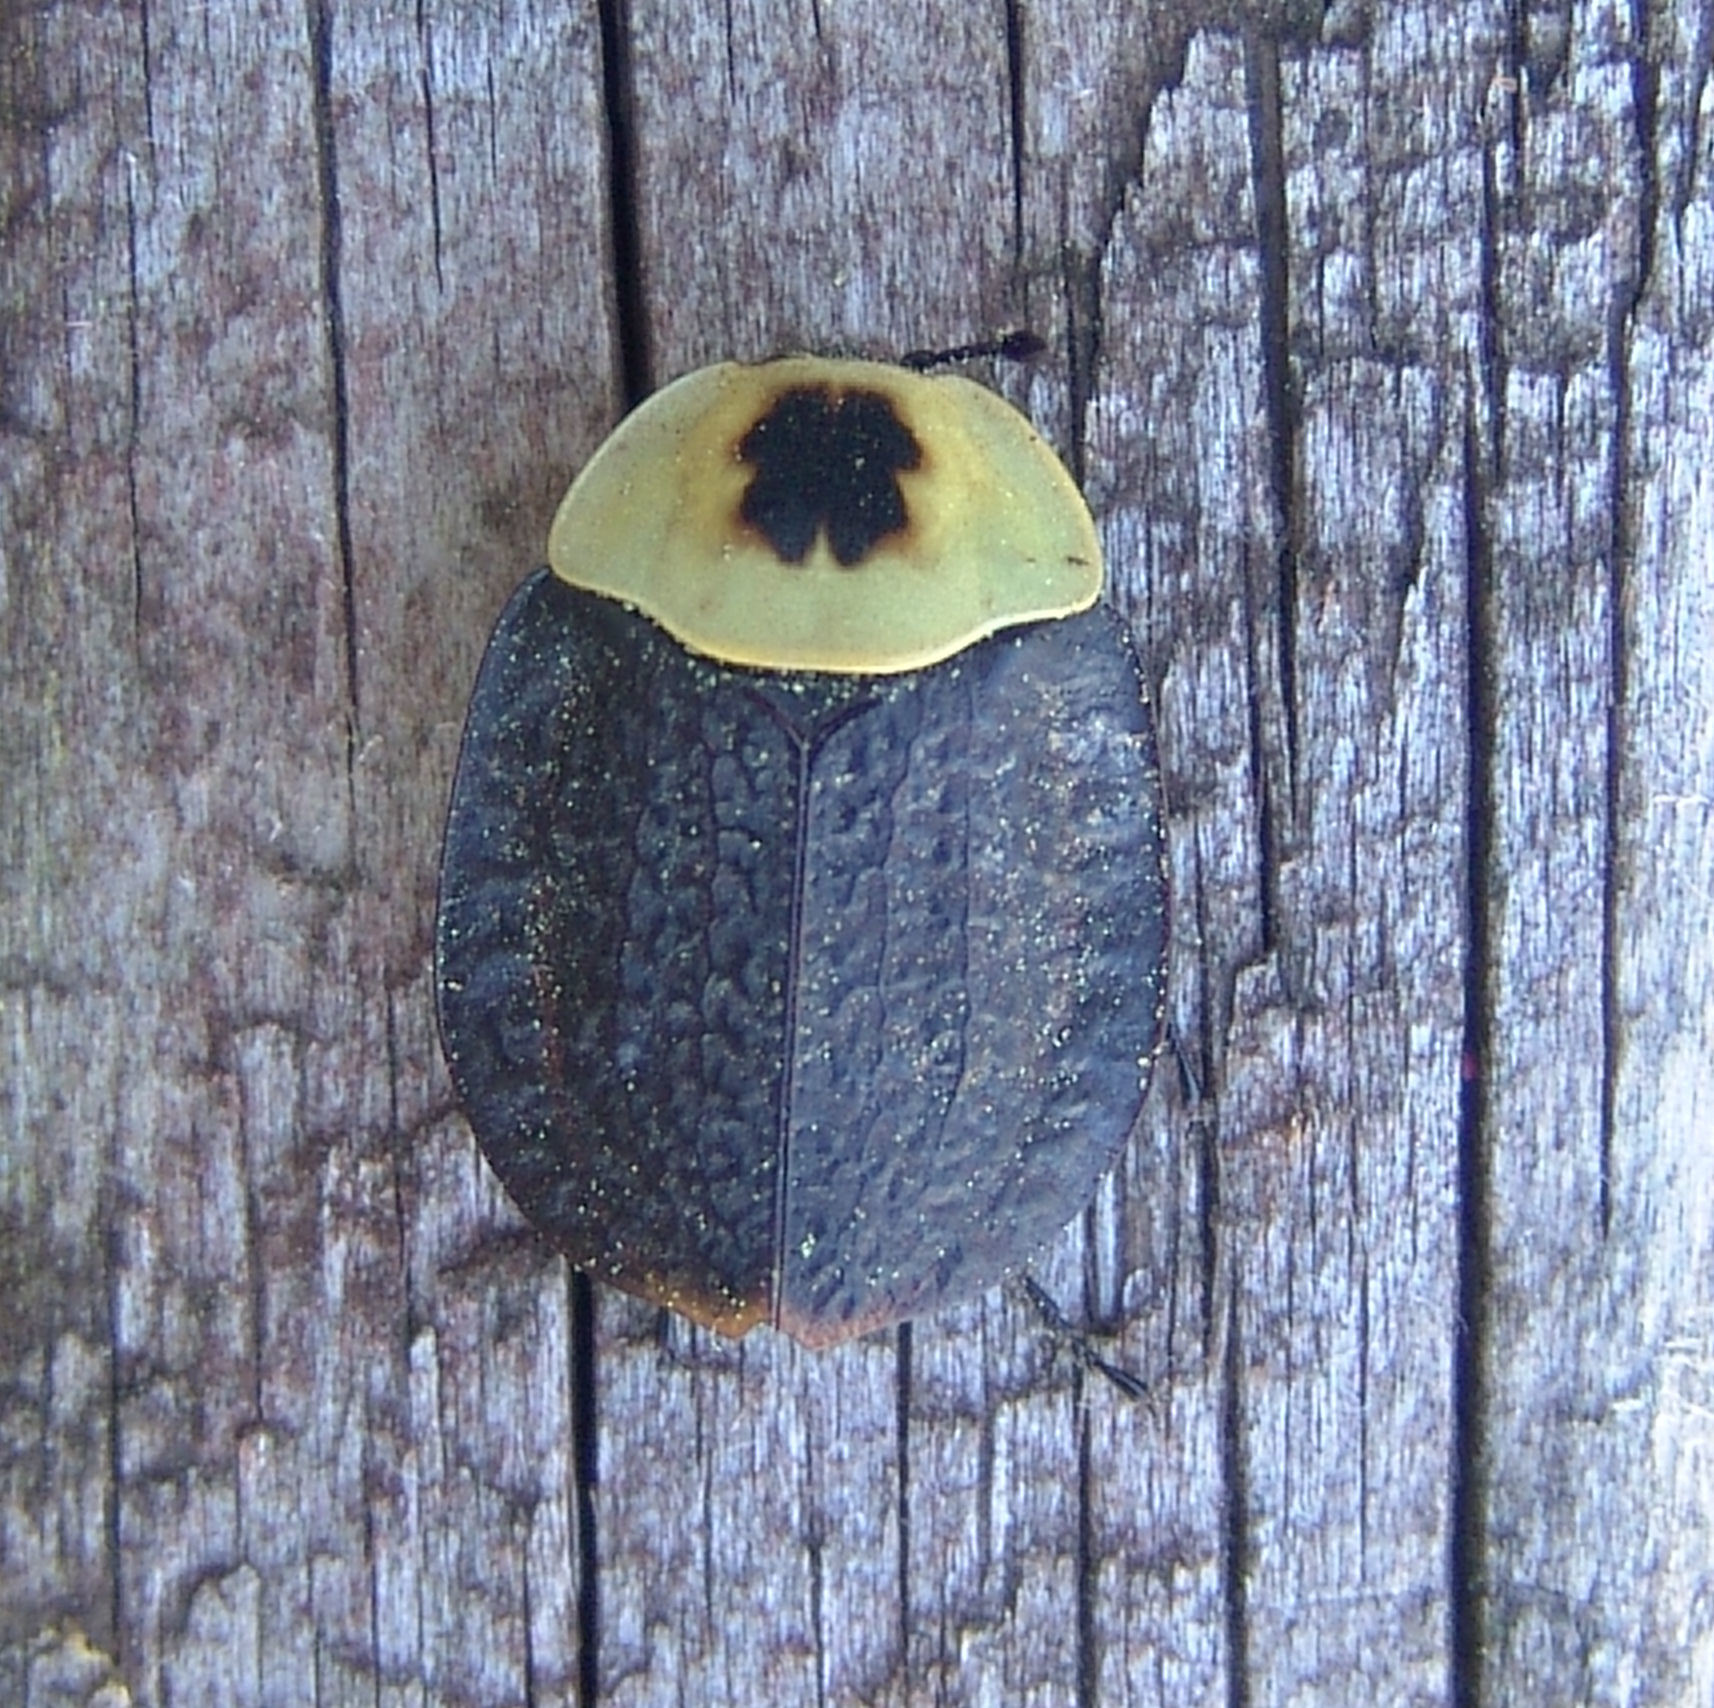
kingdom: Animalia
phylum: Arthropoda
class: Insecta
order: Coleoptera
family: Staphylinidae
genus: Necrophila
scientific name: Necrophila americana
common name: American carrion beetle
